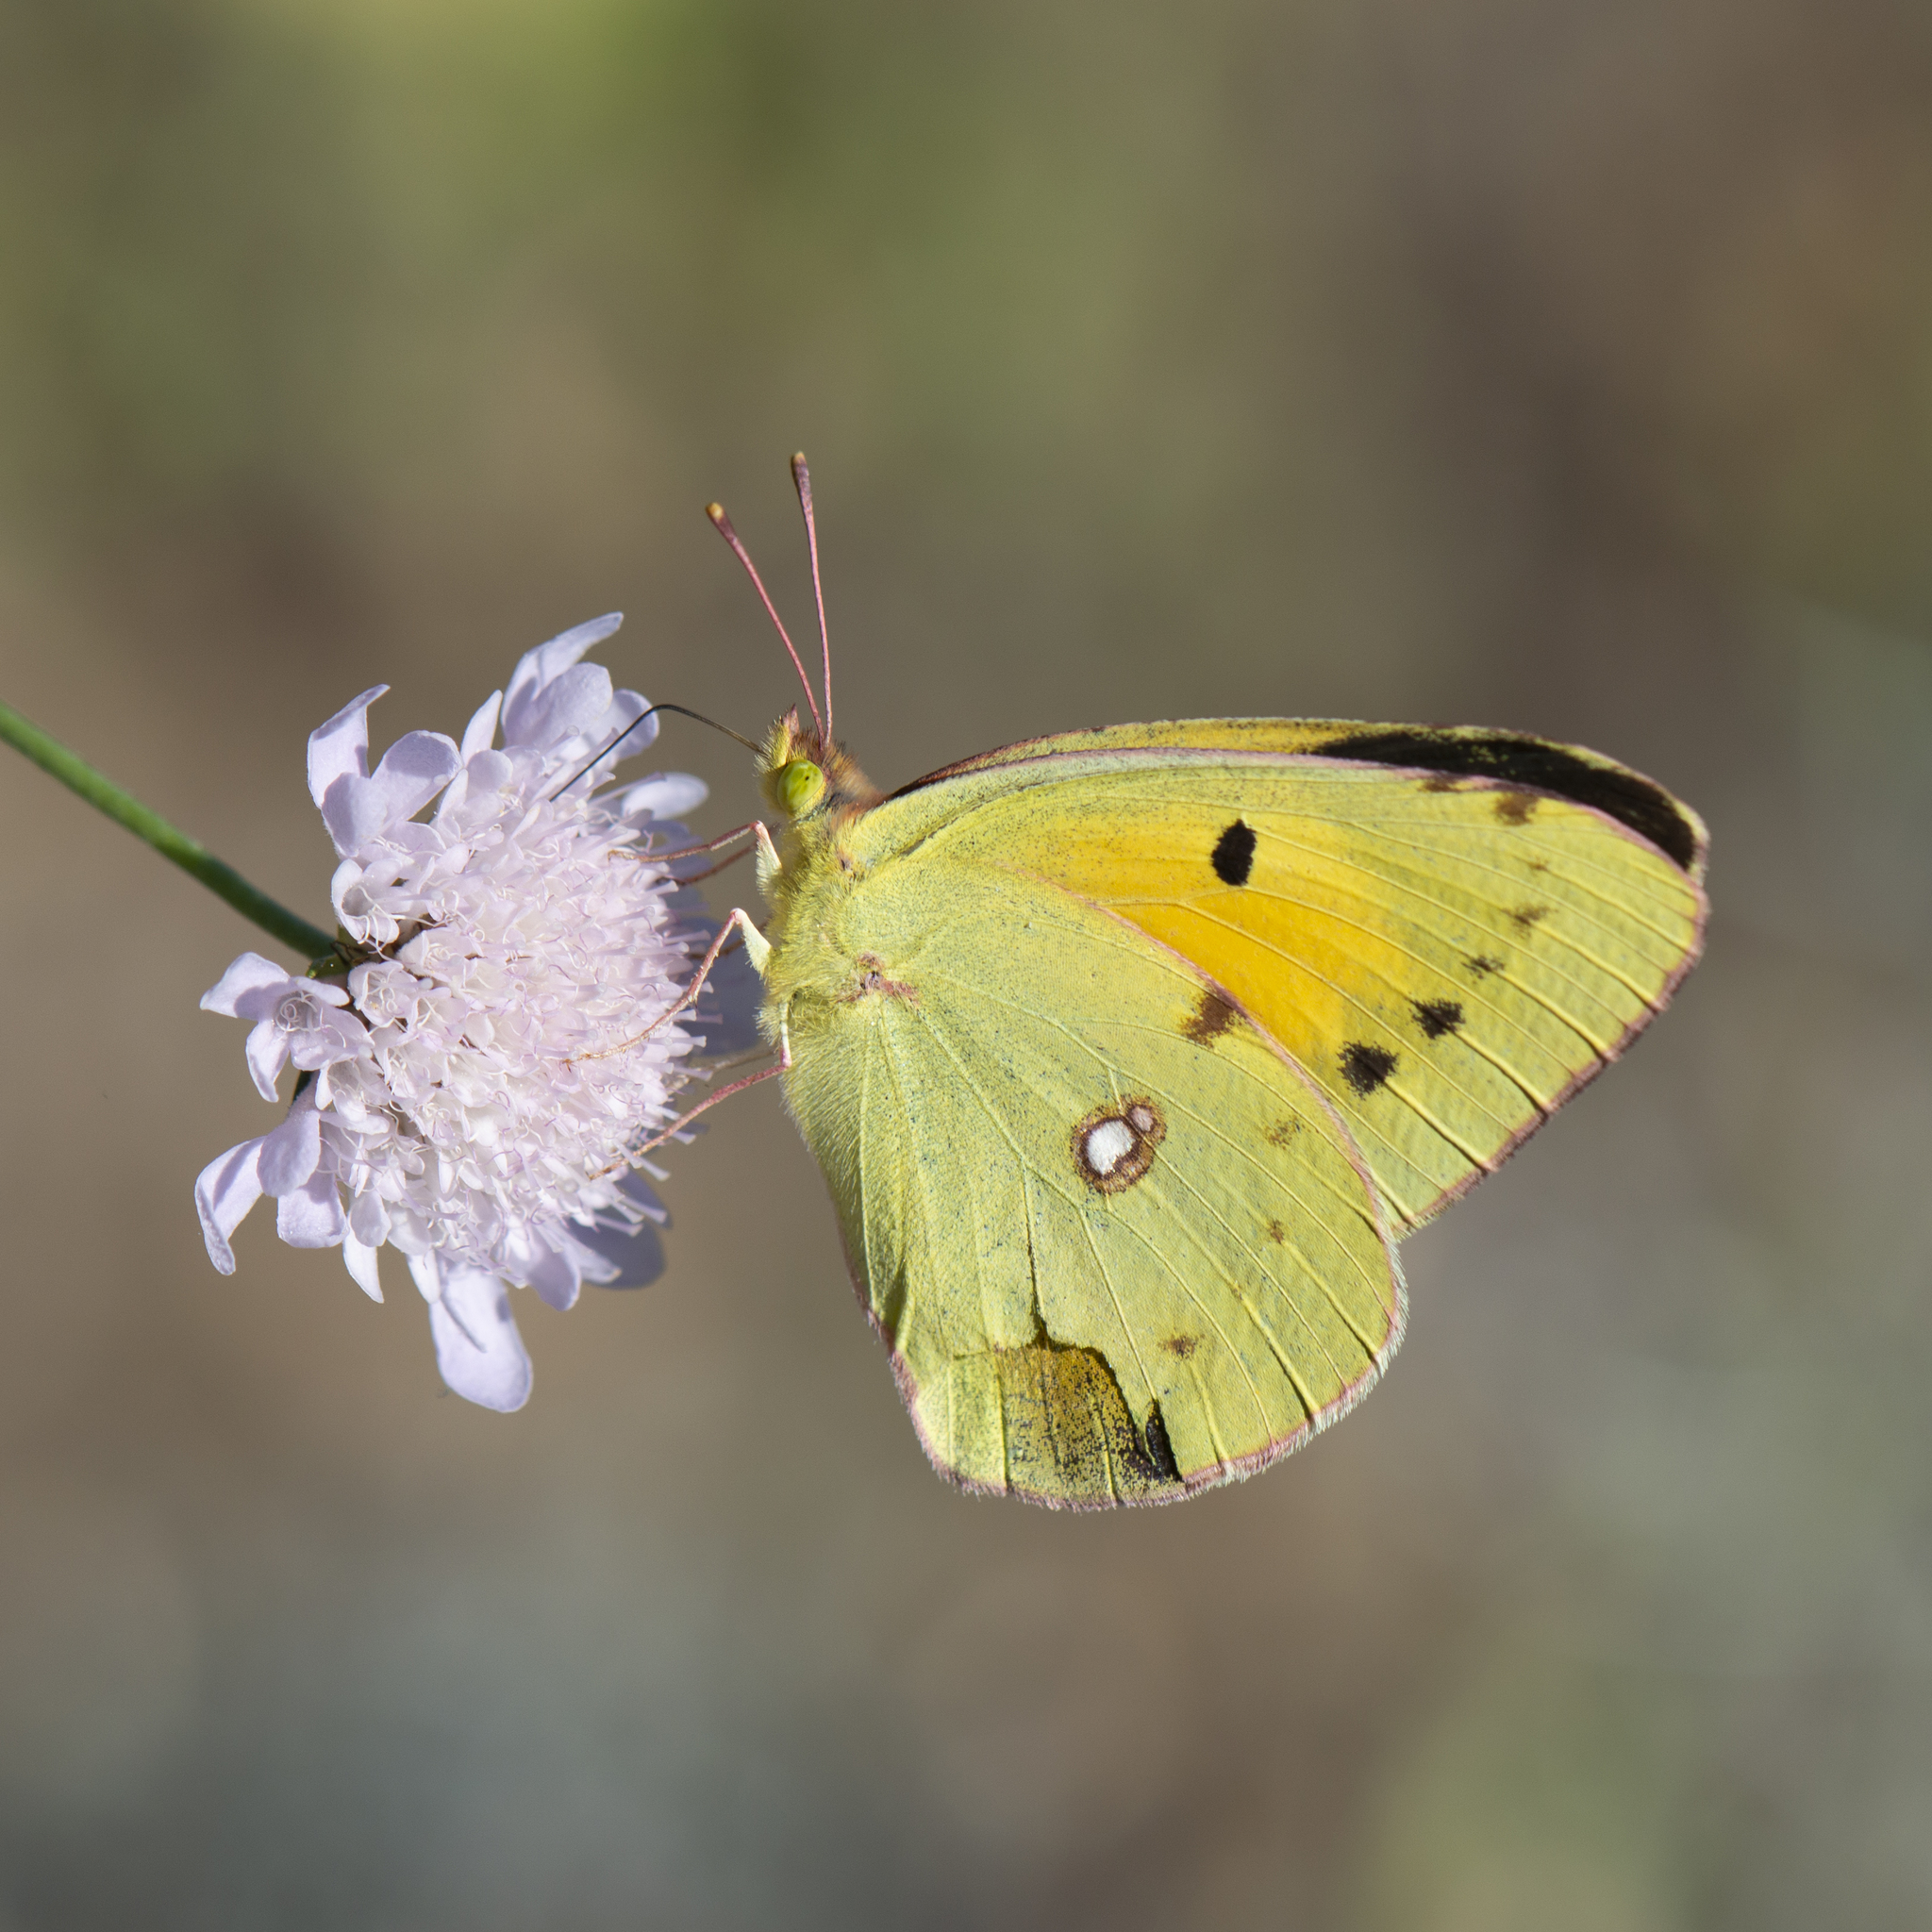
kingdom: Animalia
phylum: Arthropoda
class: Insecta
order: Lepidoptera
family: Pieridae
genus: Colias
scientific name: Colias croceus
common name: Clouded yellow
